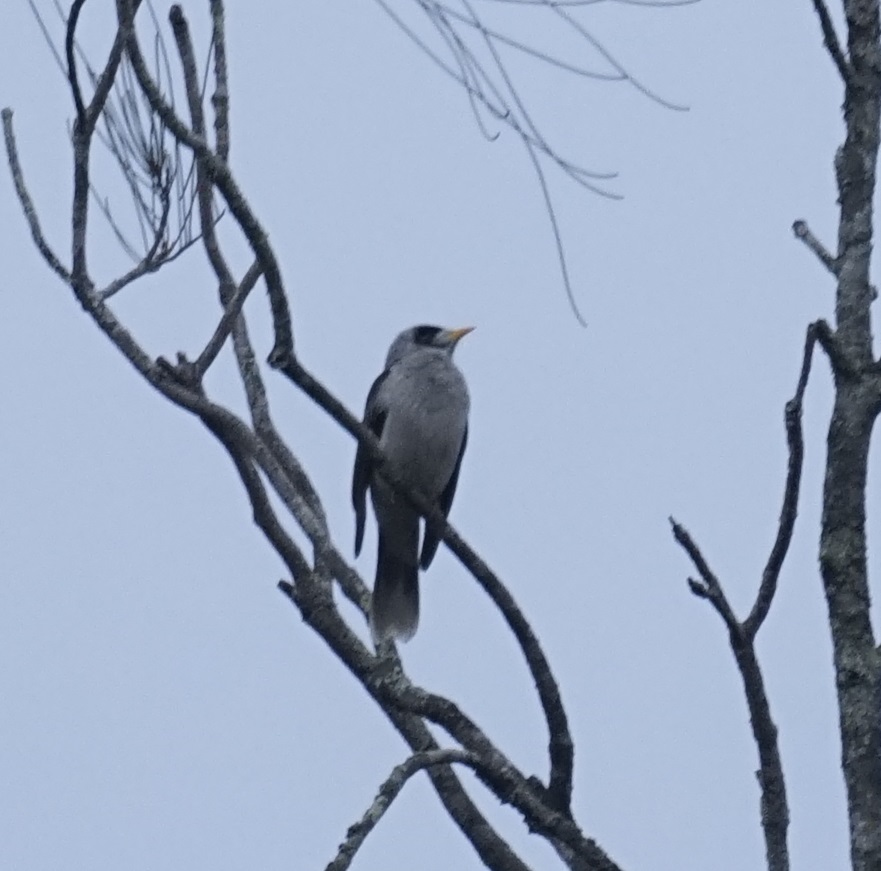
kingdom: Animalia
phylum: Chordata
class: Aves
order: Passeriformes
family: Meliphagidae
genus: Manorina
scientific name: Manorina melanocephala
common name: Noisy miner
